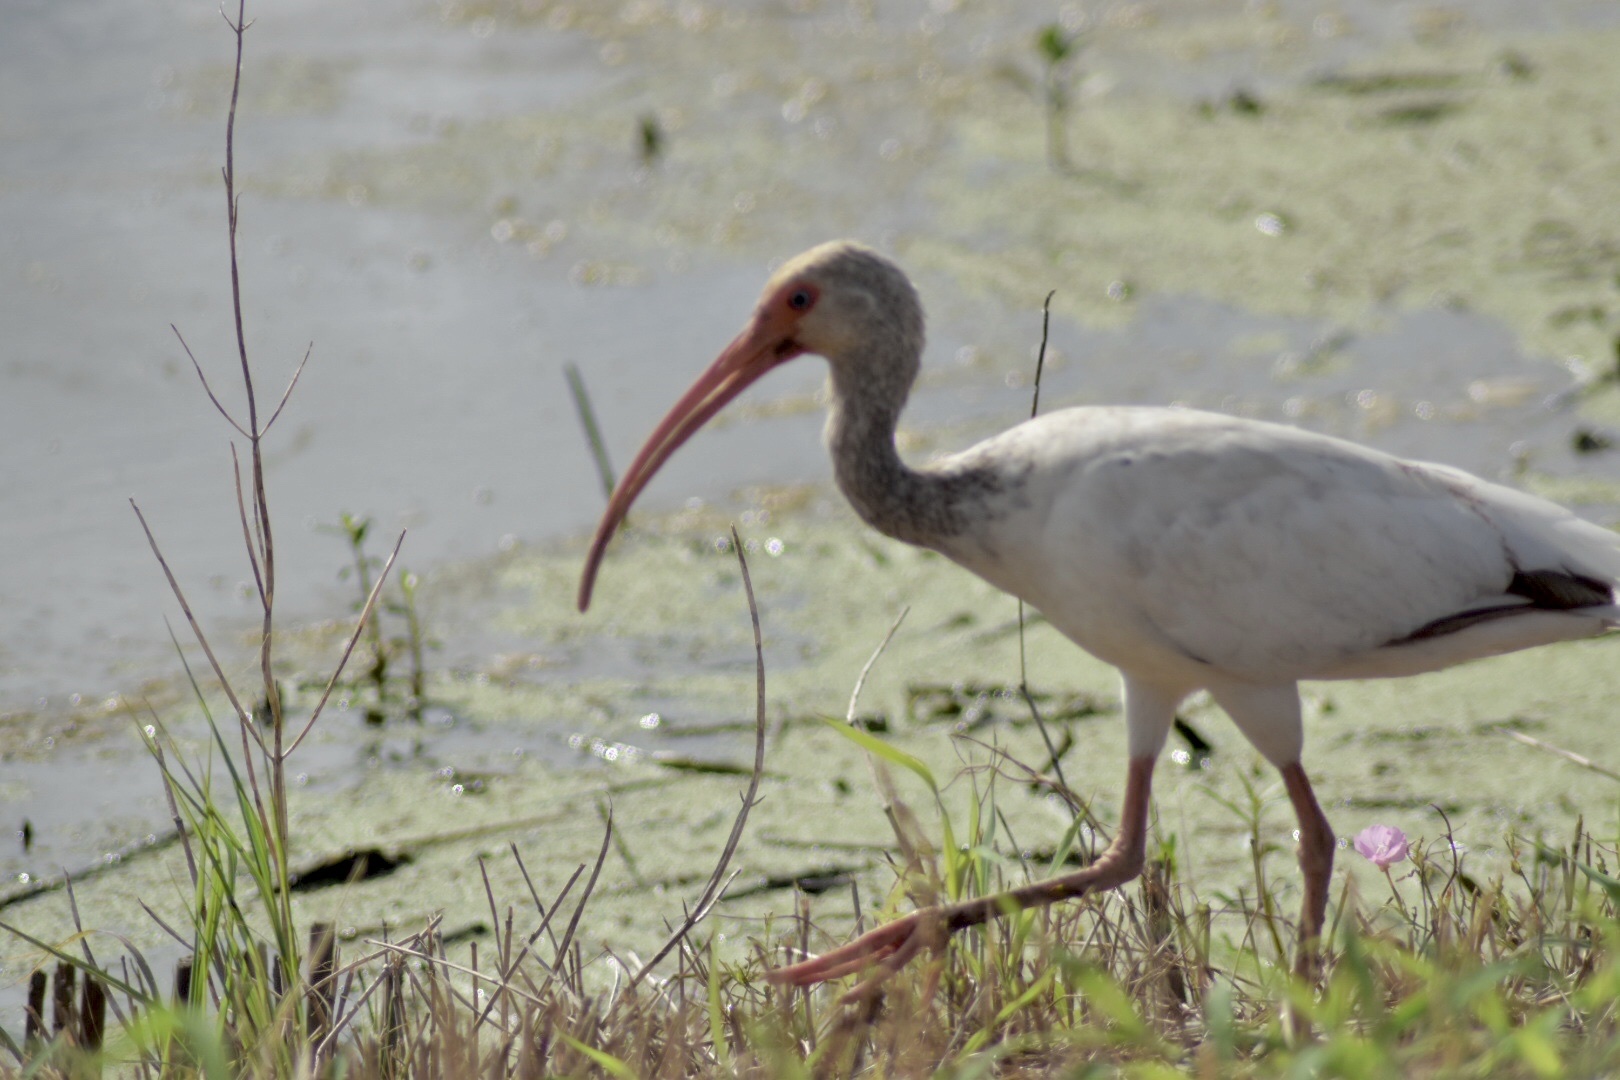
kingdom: Animalia
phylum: Chordata
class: Aves
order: Pelecaniformes
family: Threskiornithidae
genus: Eudocimus
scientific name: Eudocimus albus
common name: White ibis
